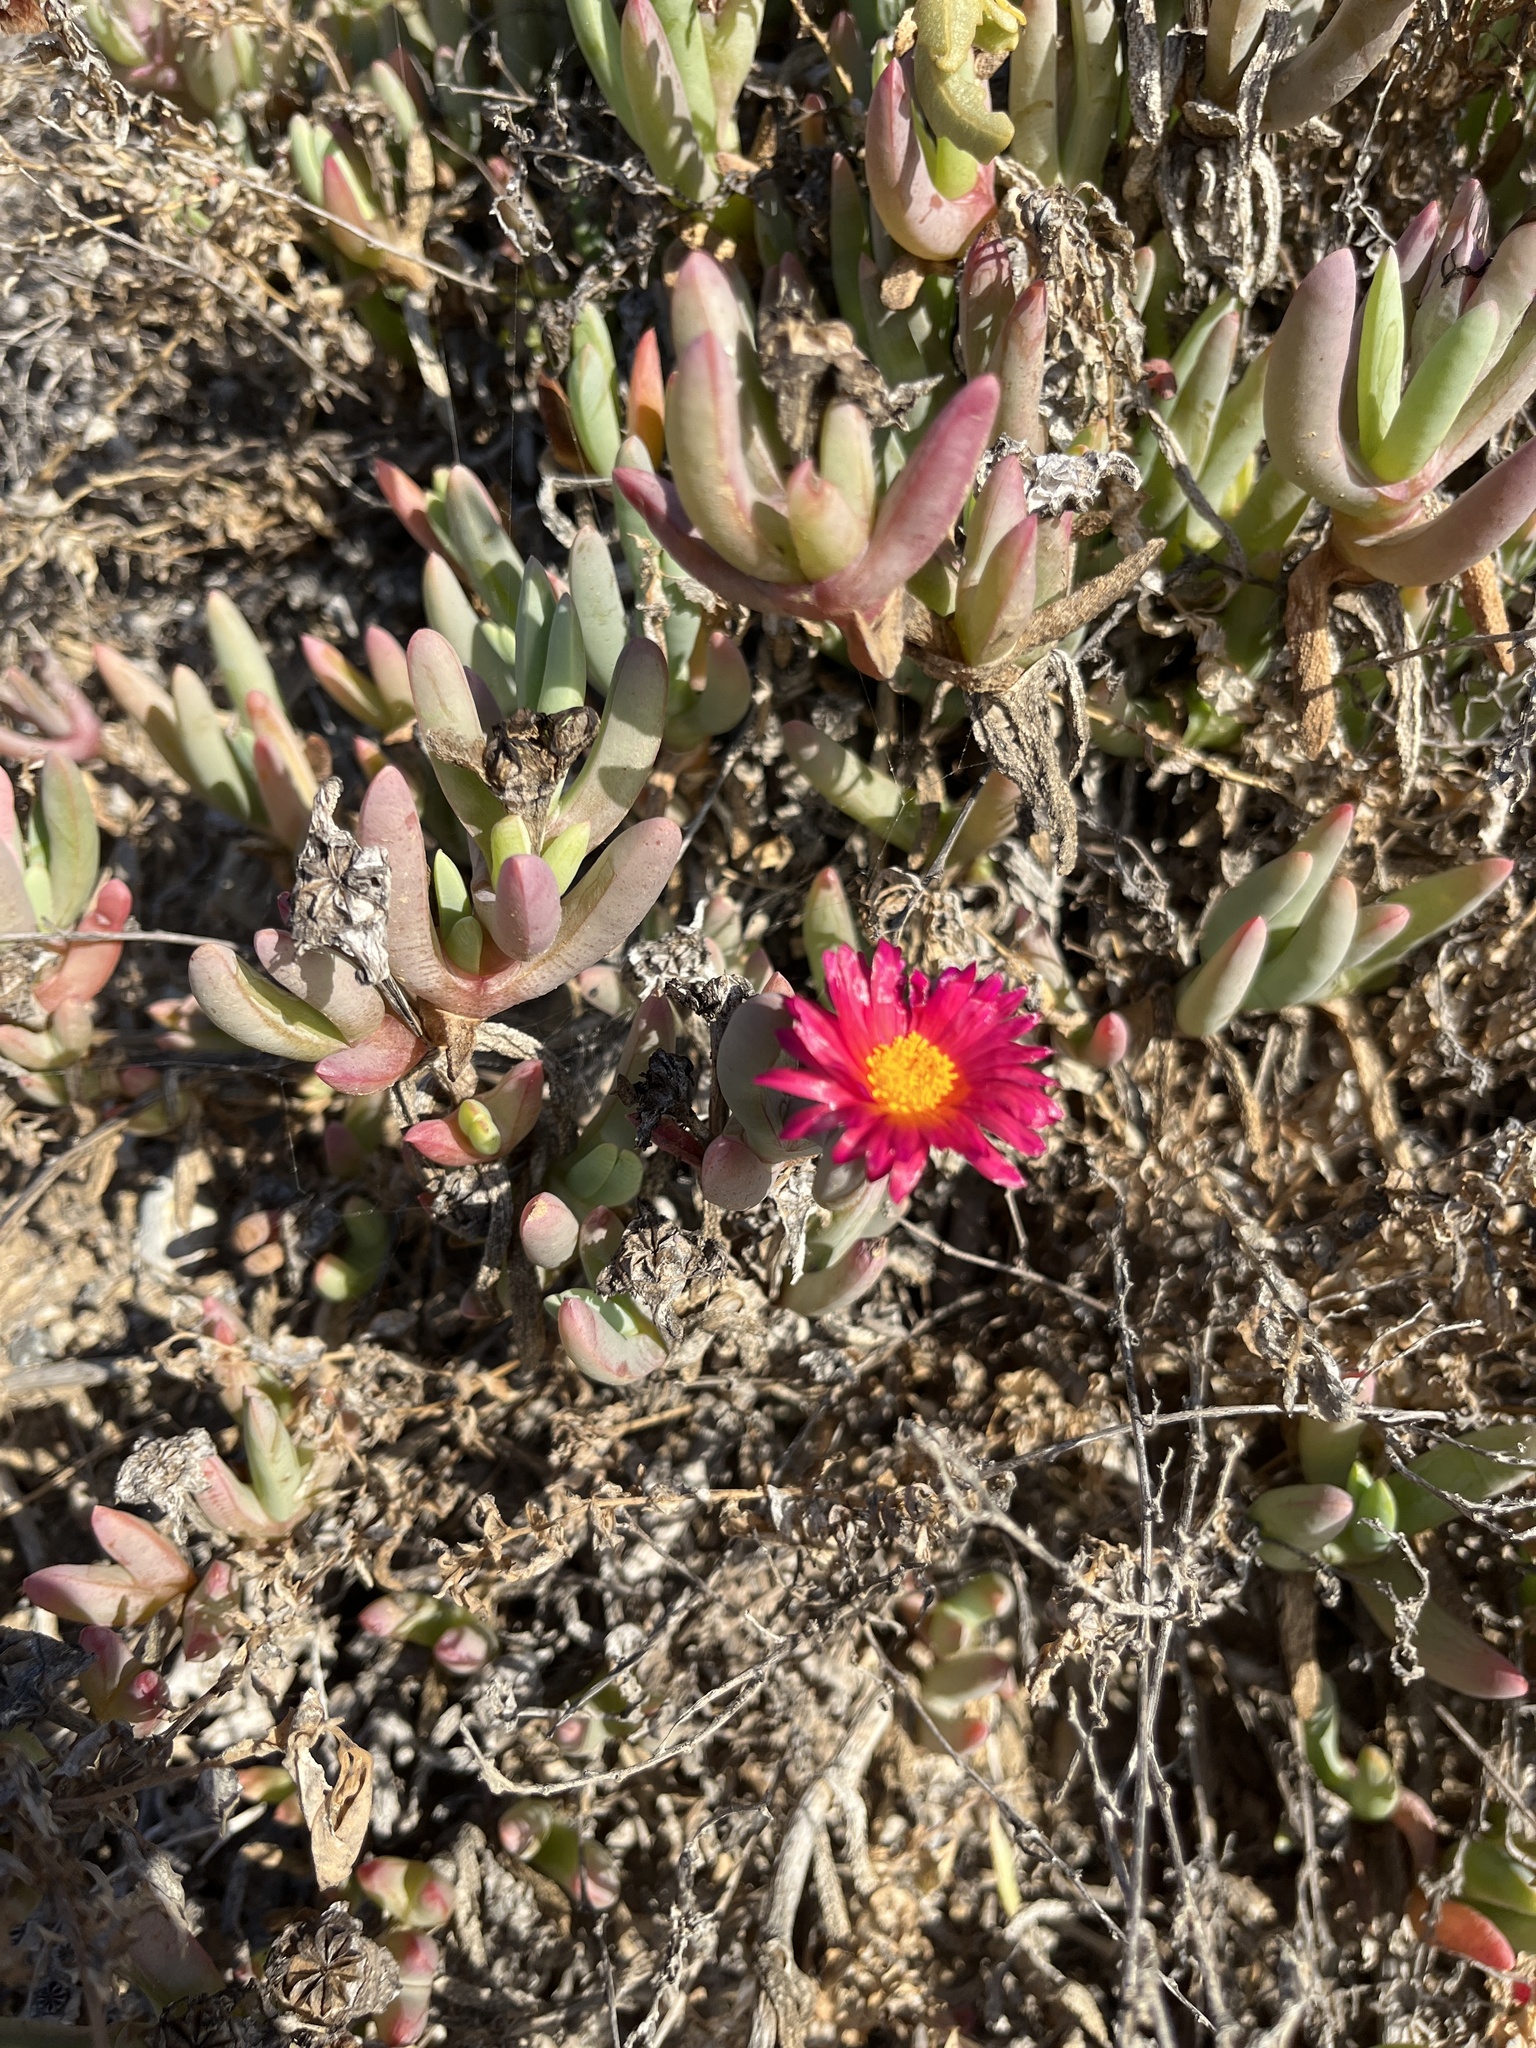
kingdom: Plantae
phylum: Tracheophyta
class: Magnoliopsida
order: Caryophyllales
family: Aizoaceae
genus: Malephora
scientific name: Malephora crocea
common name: Coppery mesemb
